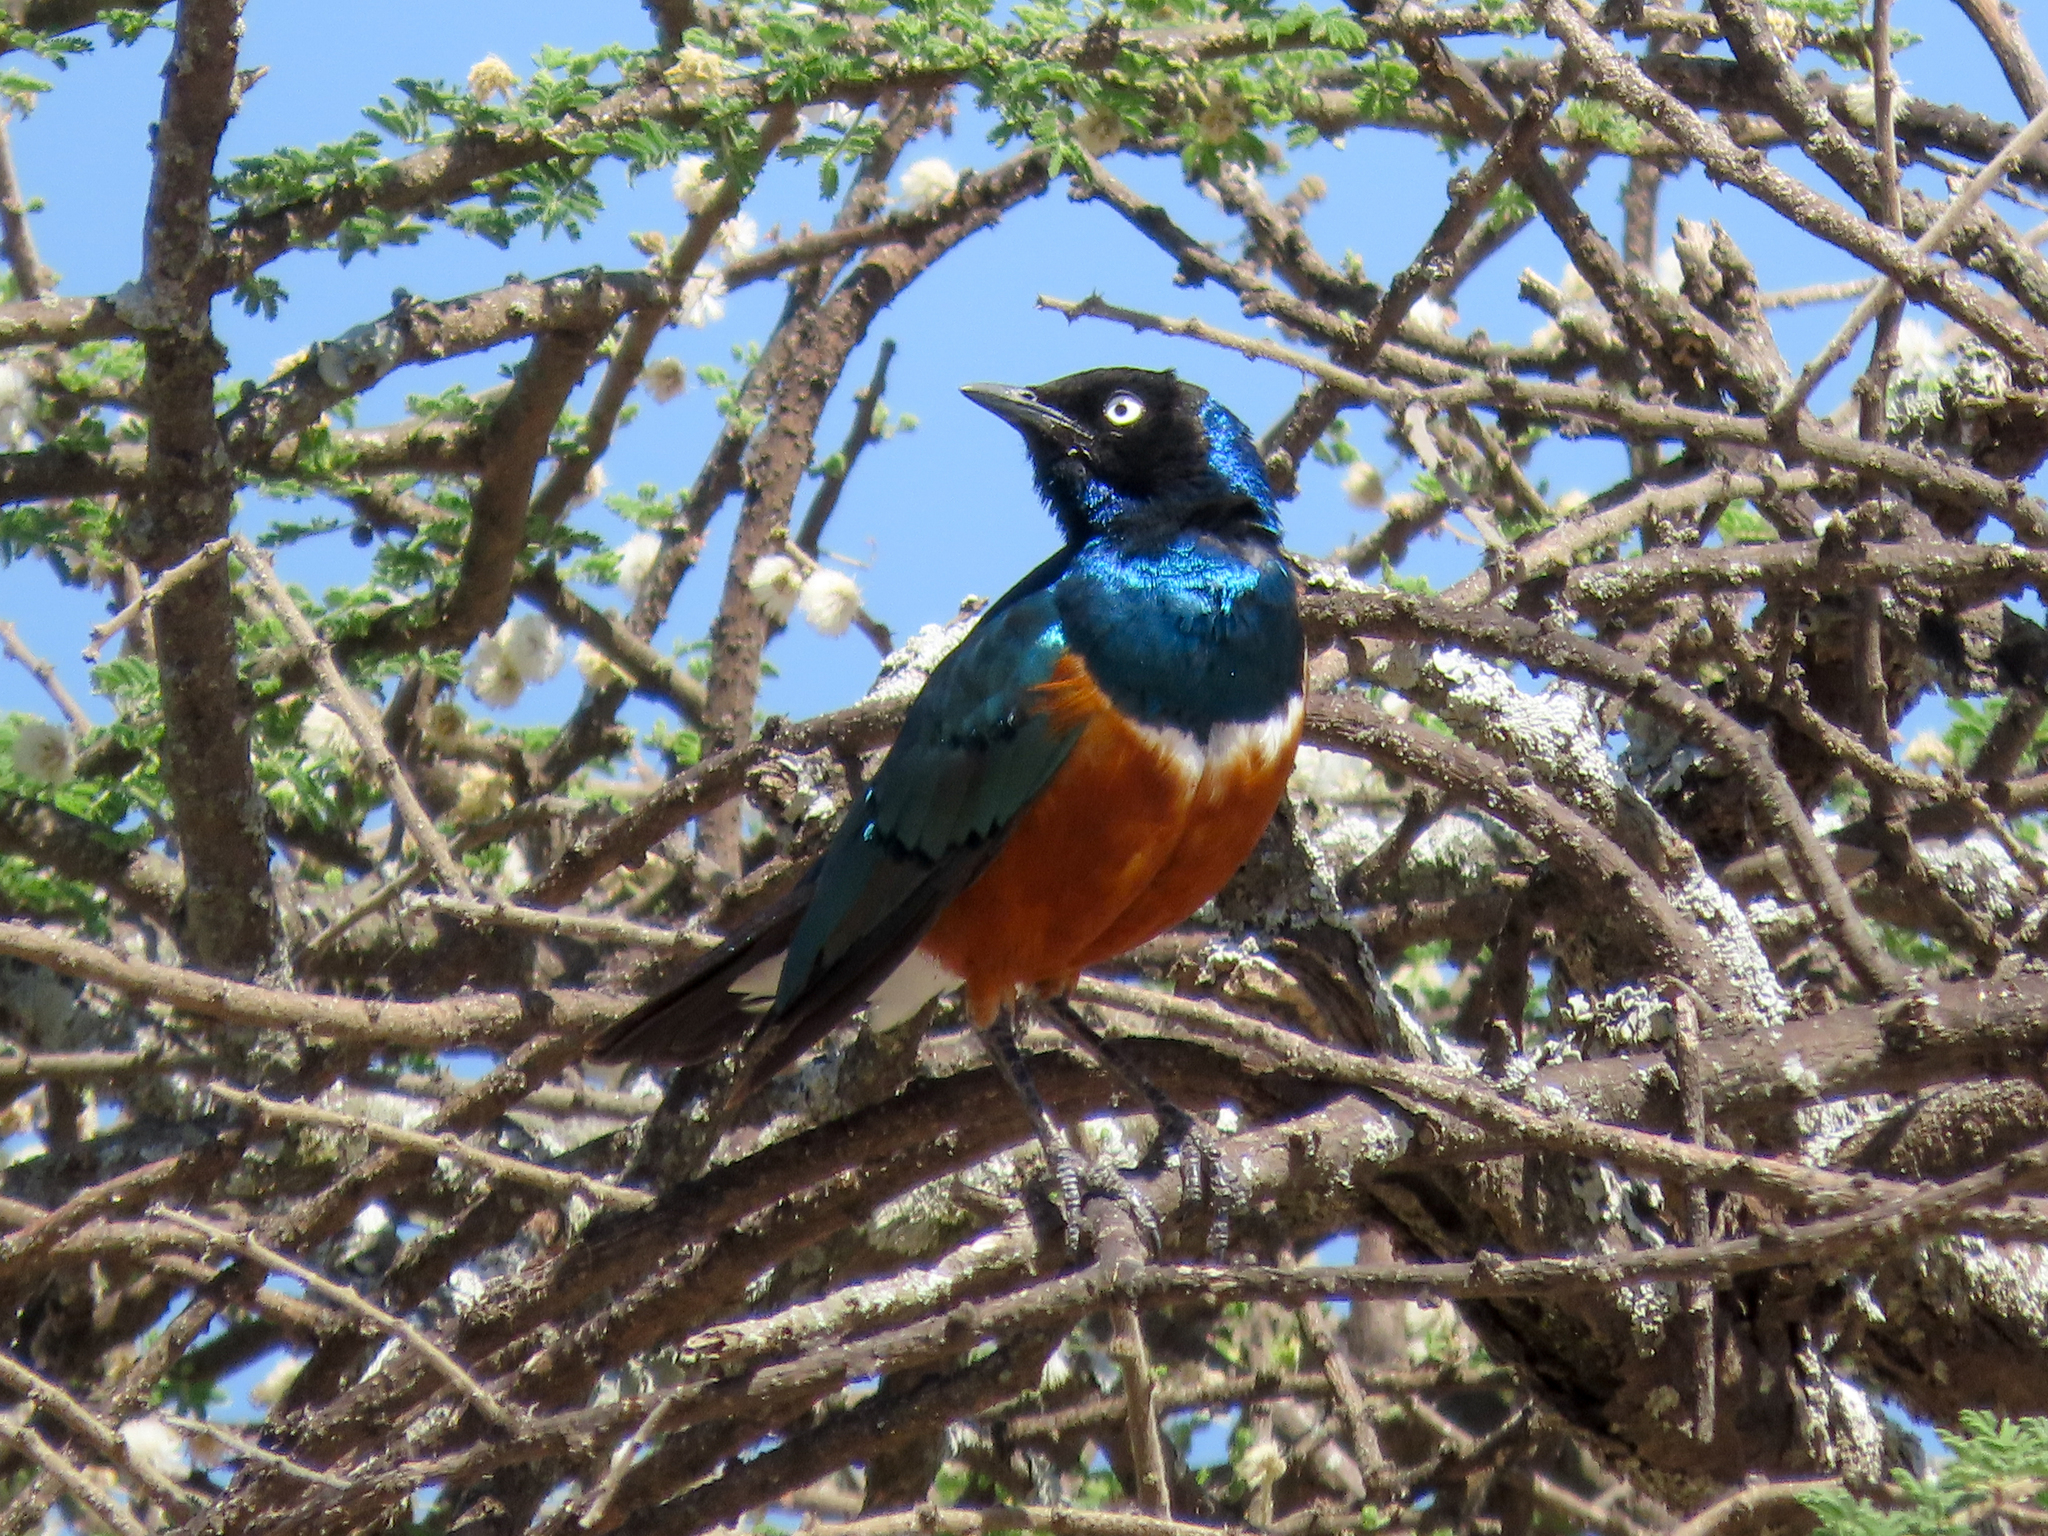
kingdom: Animalia
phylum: Chordata
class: Aves
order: Passeriformes
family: Sturnidae
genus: Lamprotornis
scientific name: Lamprotornis superbus
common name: Superb starling
